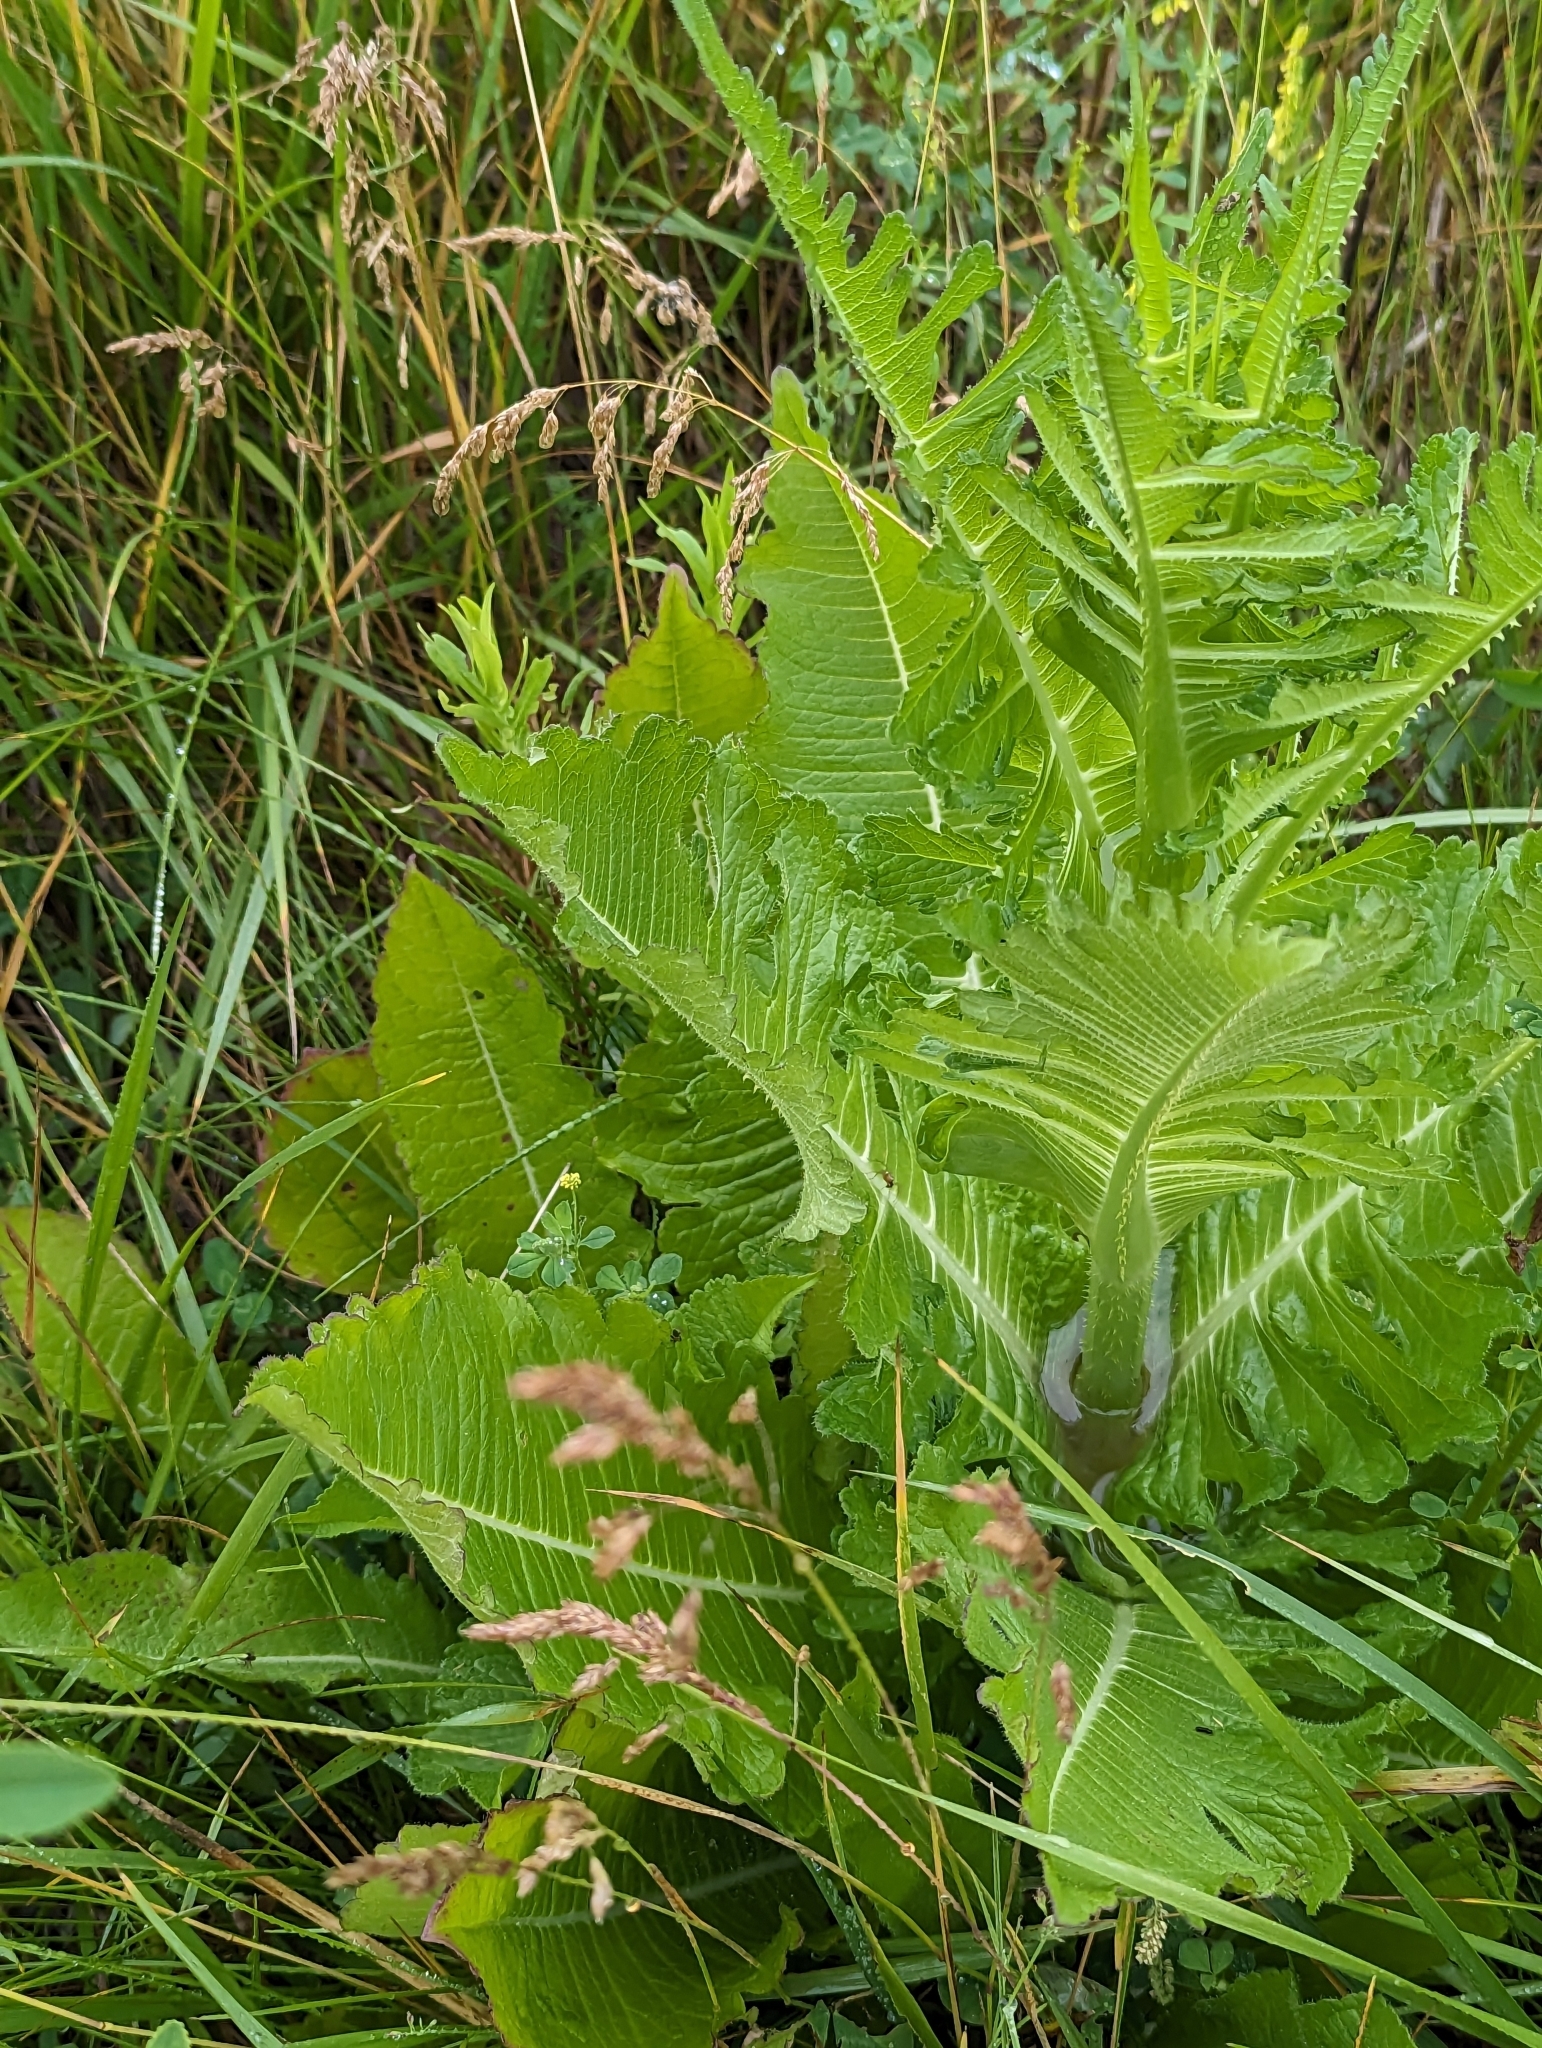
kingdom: Plantae
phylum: Tracheophyta
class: Magnoliopsida
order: Dipsacales
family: Caprifoliaceae
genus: Dipsacus
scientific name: Dipsacus laciniatus
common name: Cut-leaved teasel
